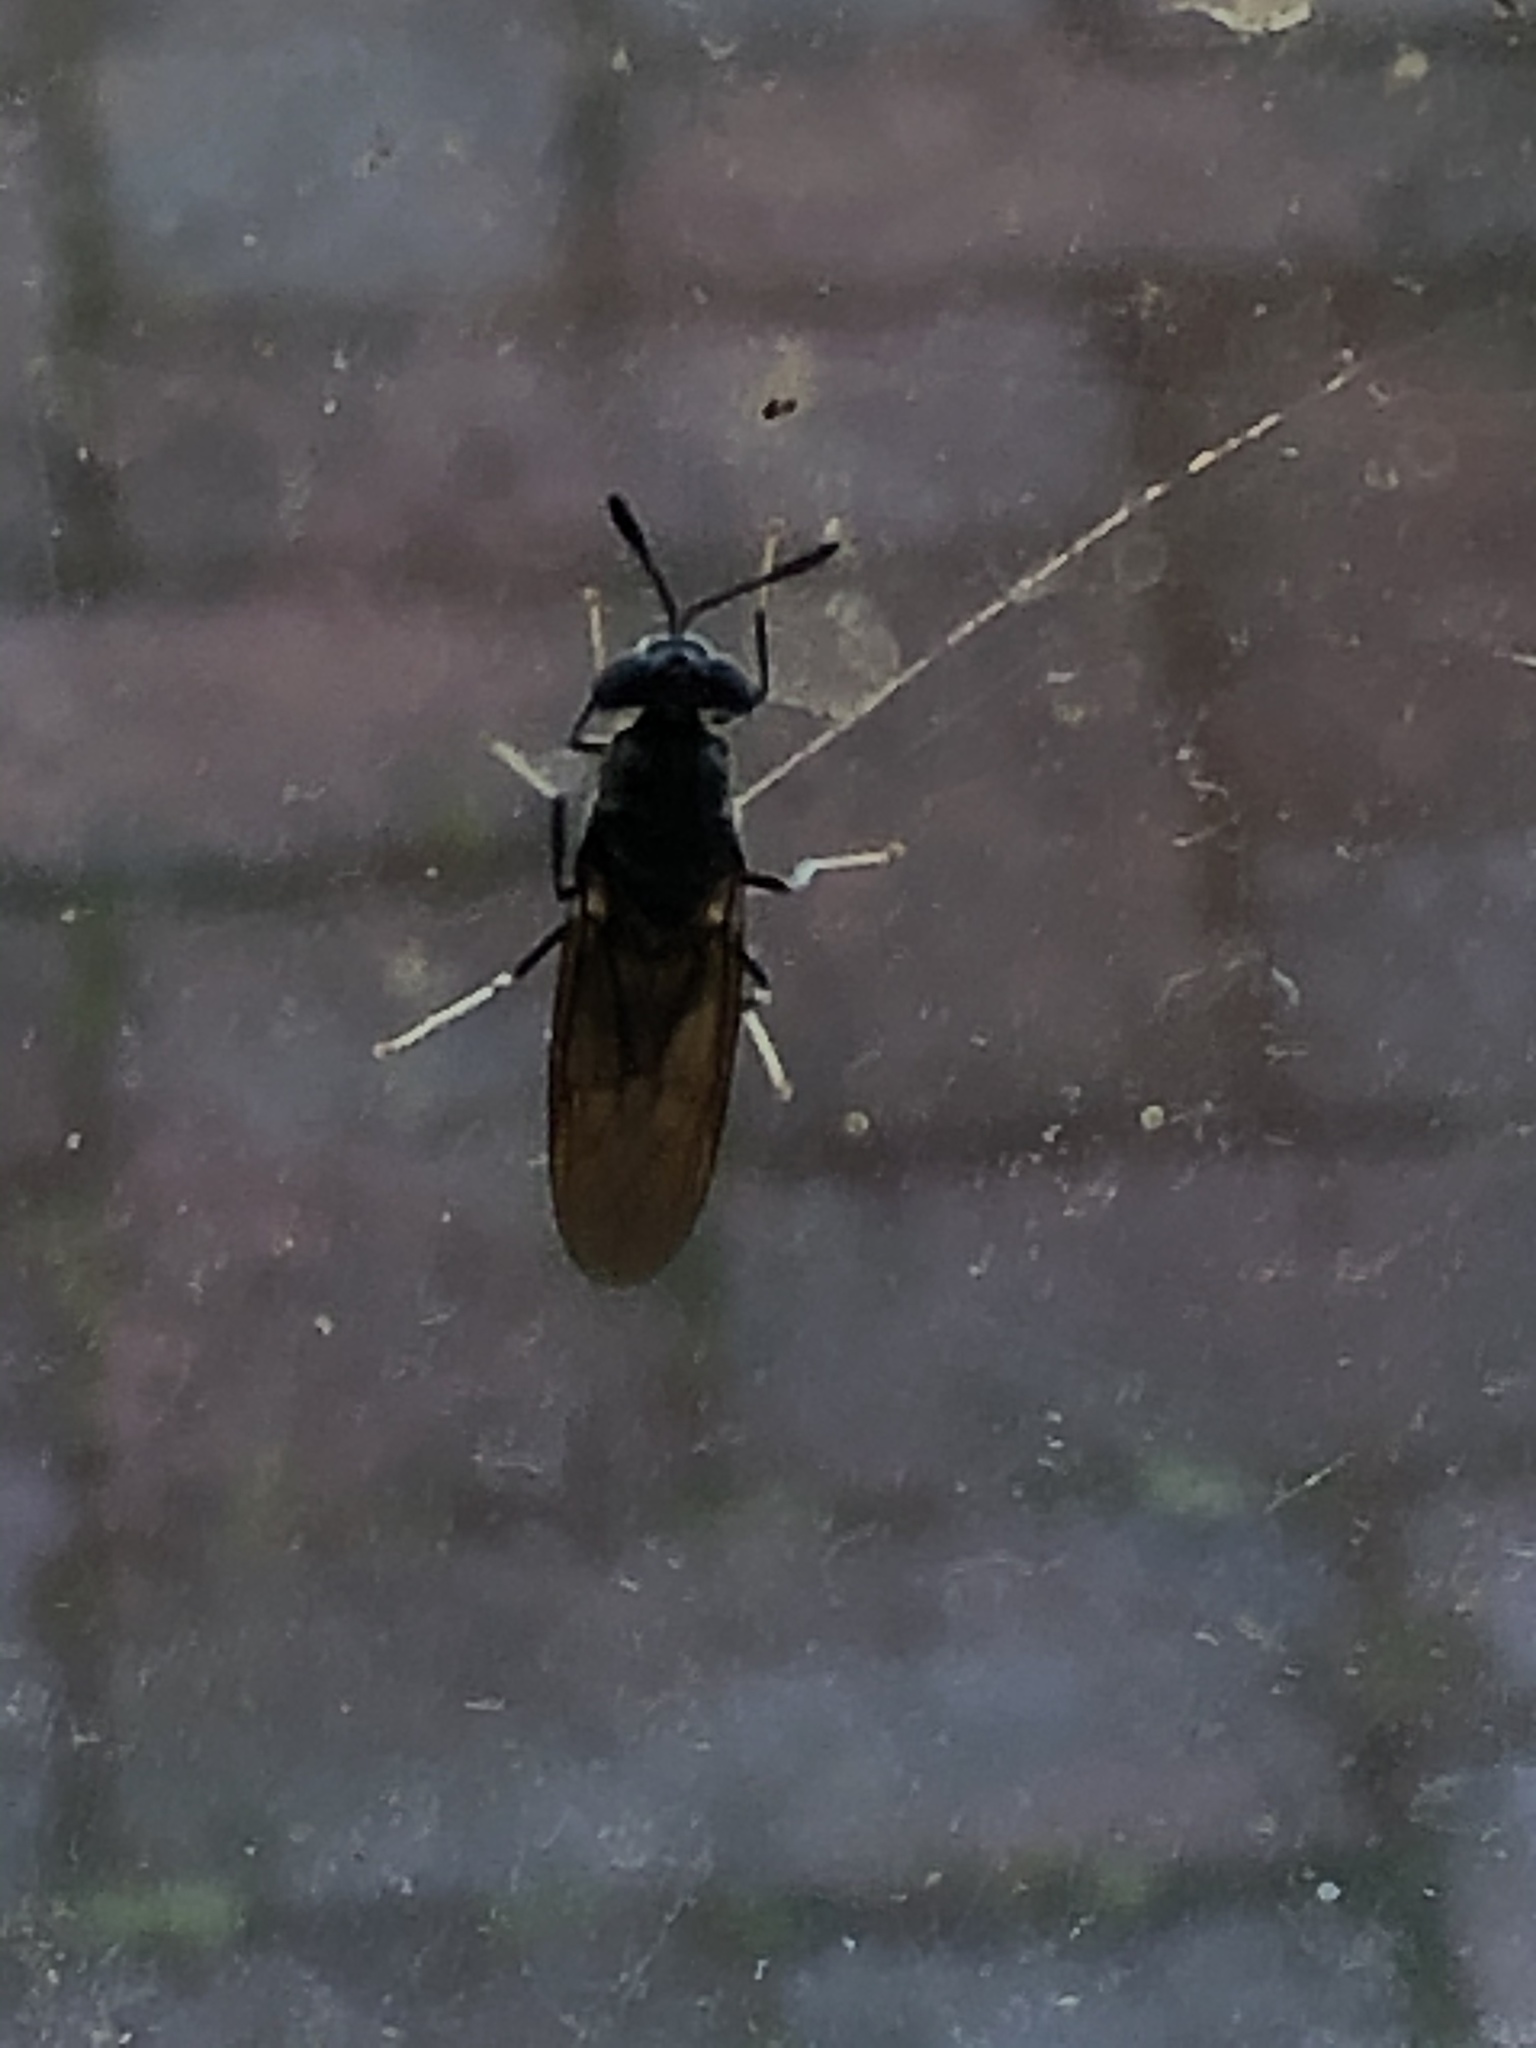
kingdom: Animalia
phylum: Arthropoda
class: Insecta
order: Diptera
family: Stratiomyidae
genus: Hermetia
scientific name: Hermetia illucens
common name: Black soldier fly
